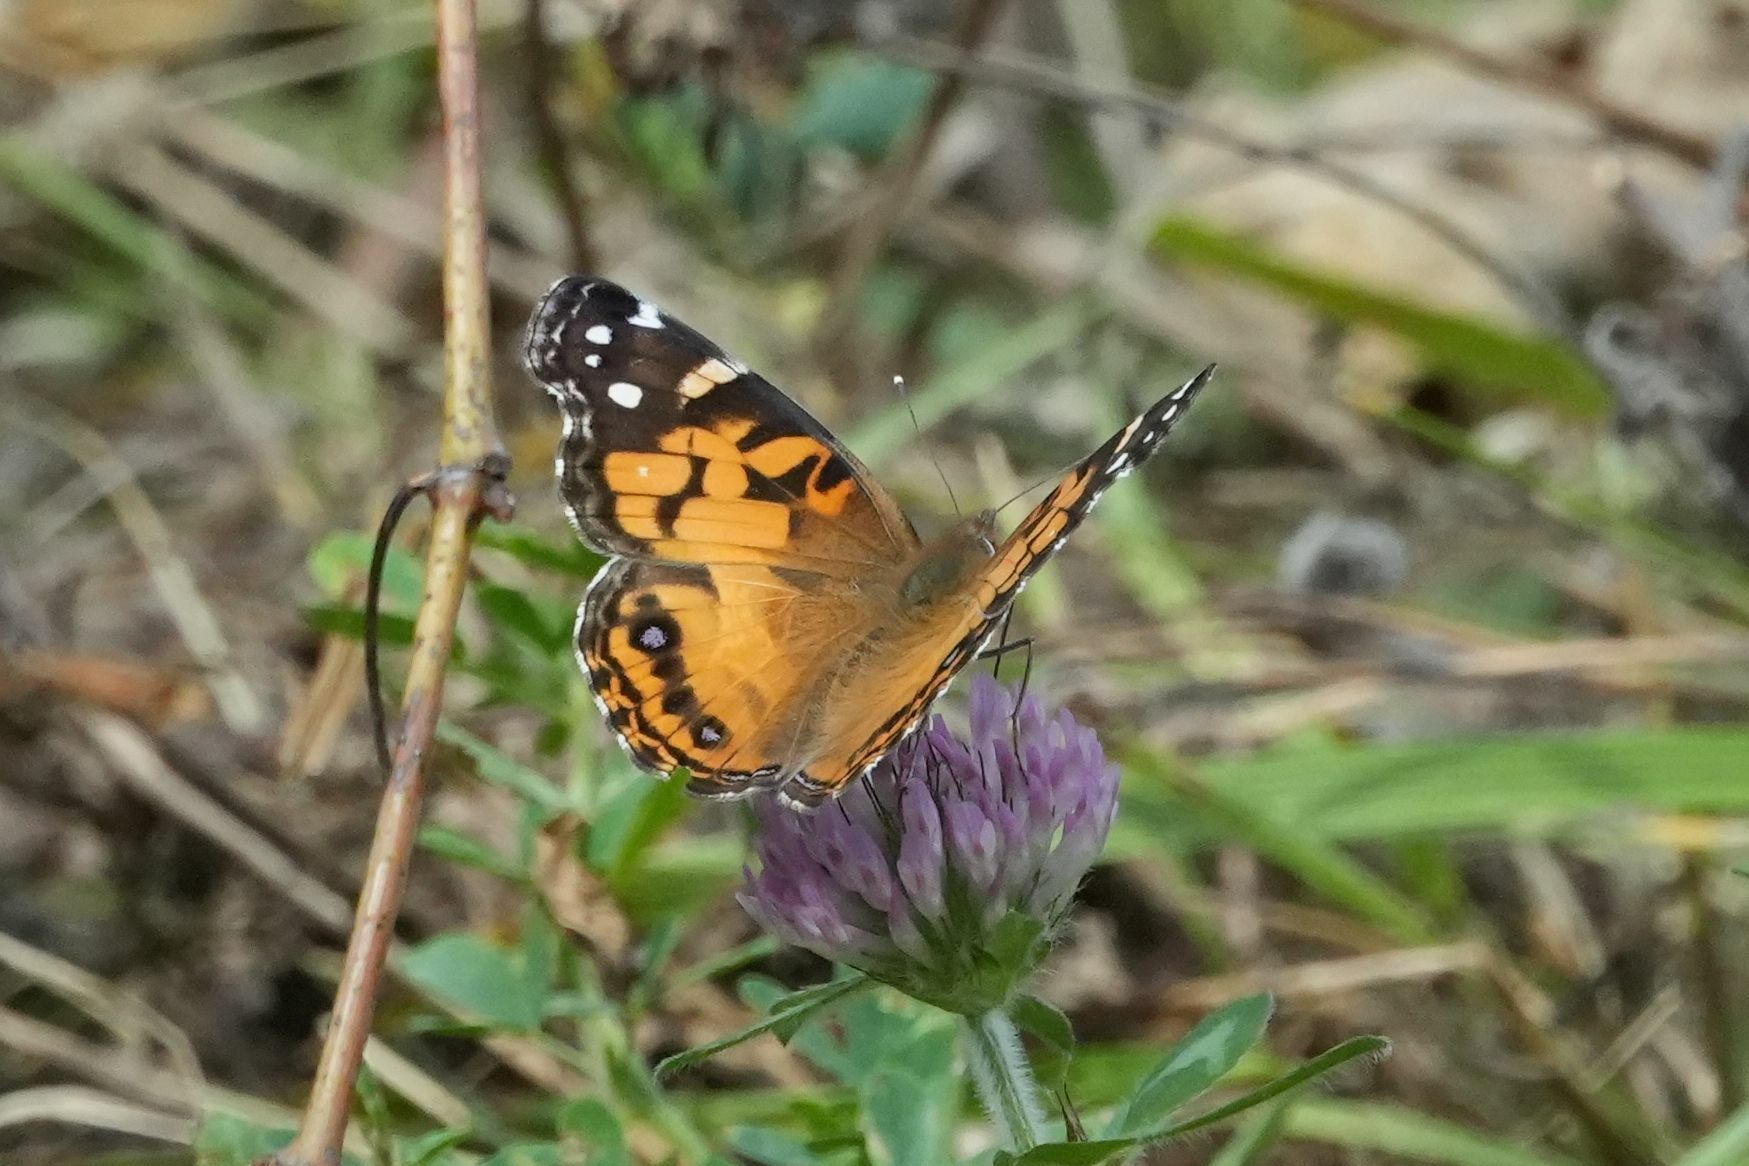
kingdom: Animalia
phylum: Arthropoda
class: Insecta
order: Lepidoptera
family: Nymphalidae
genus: Vanessa
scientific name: Vanessa virginiensis
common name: American lady
